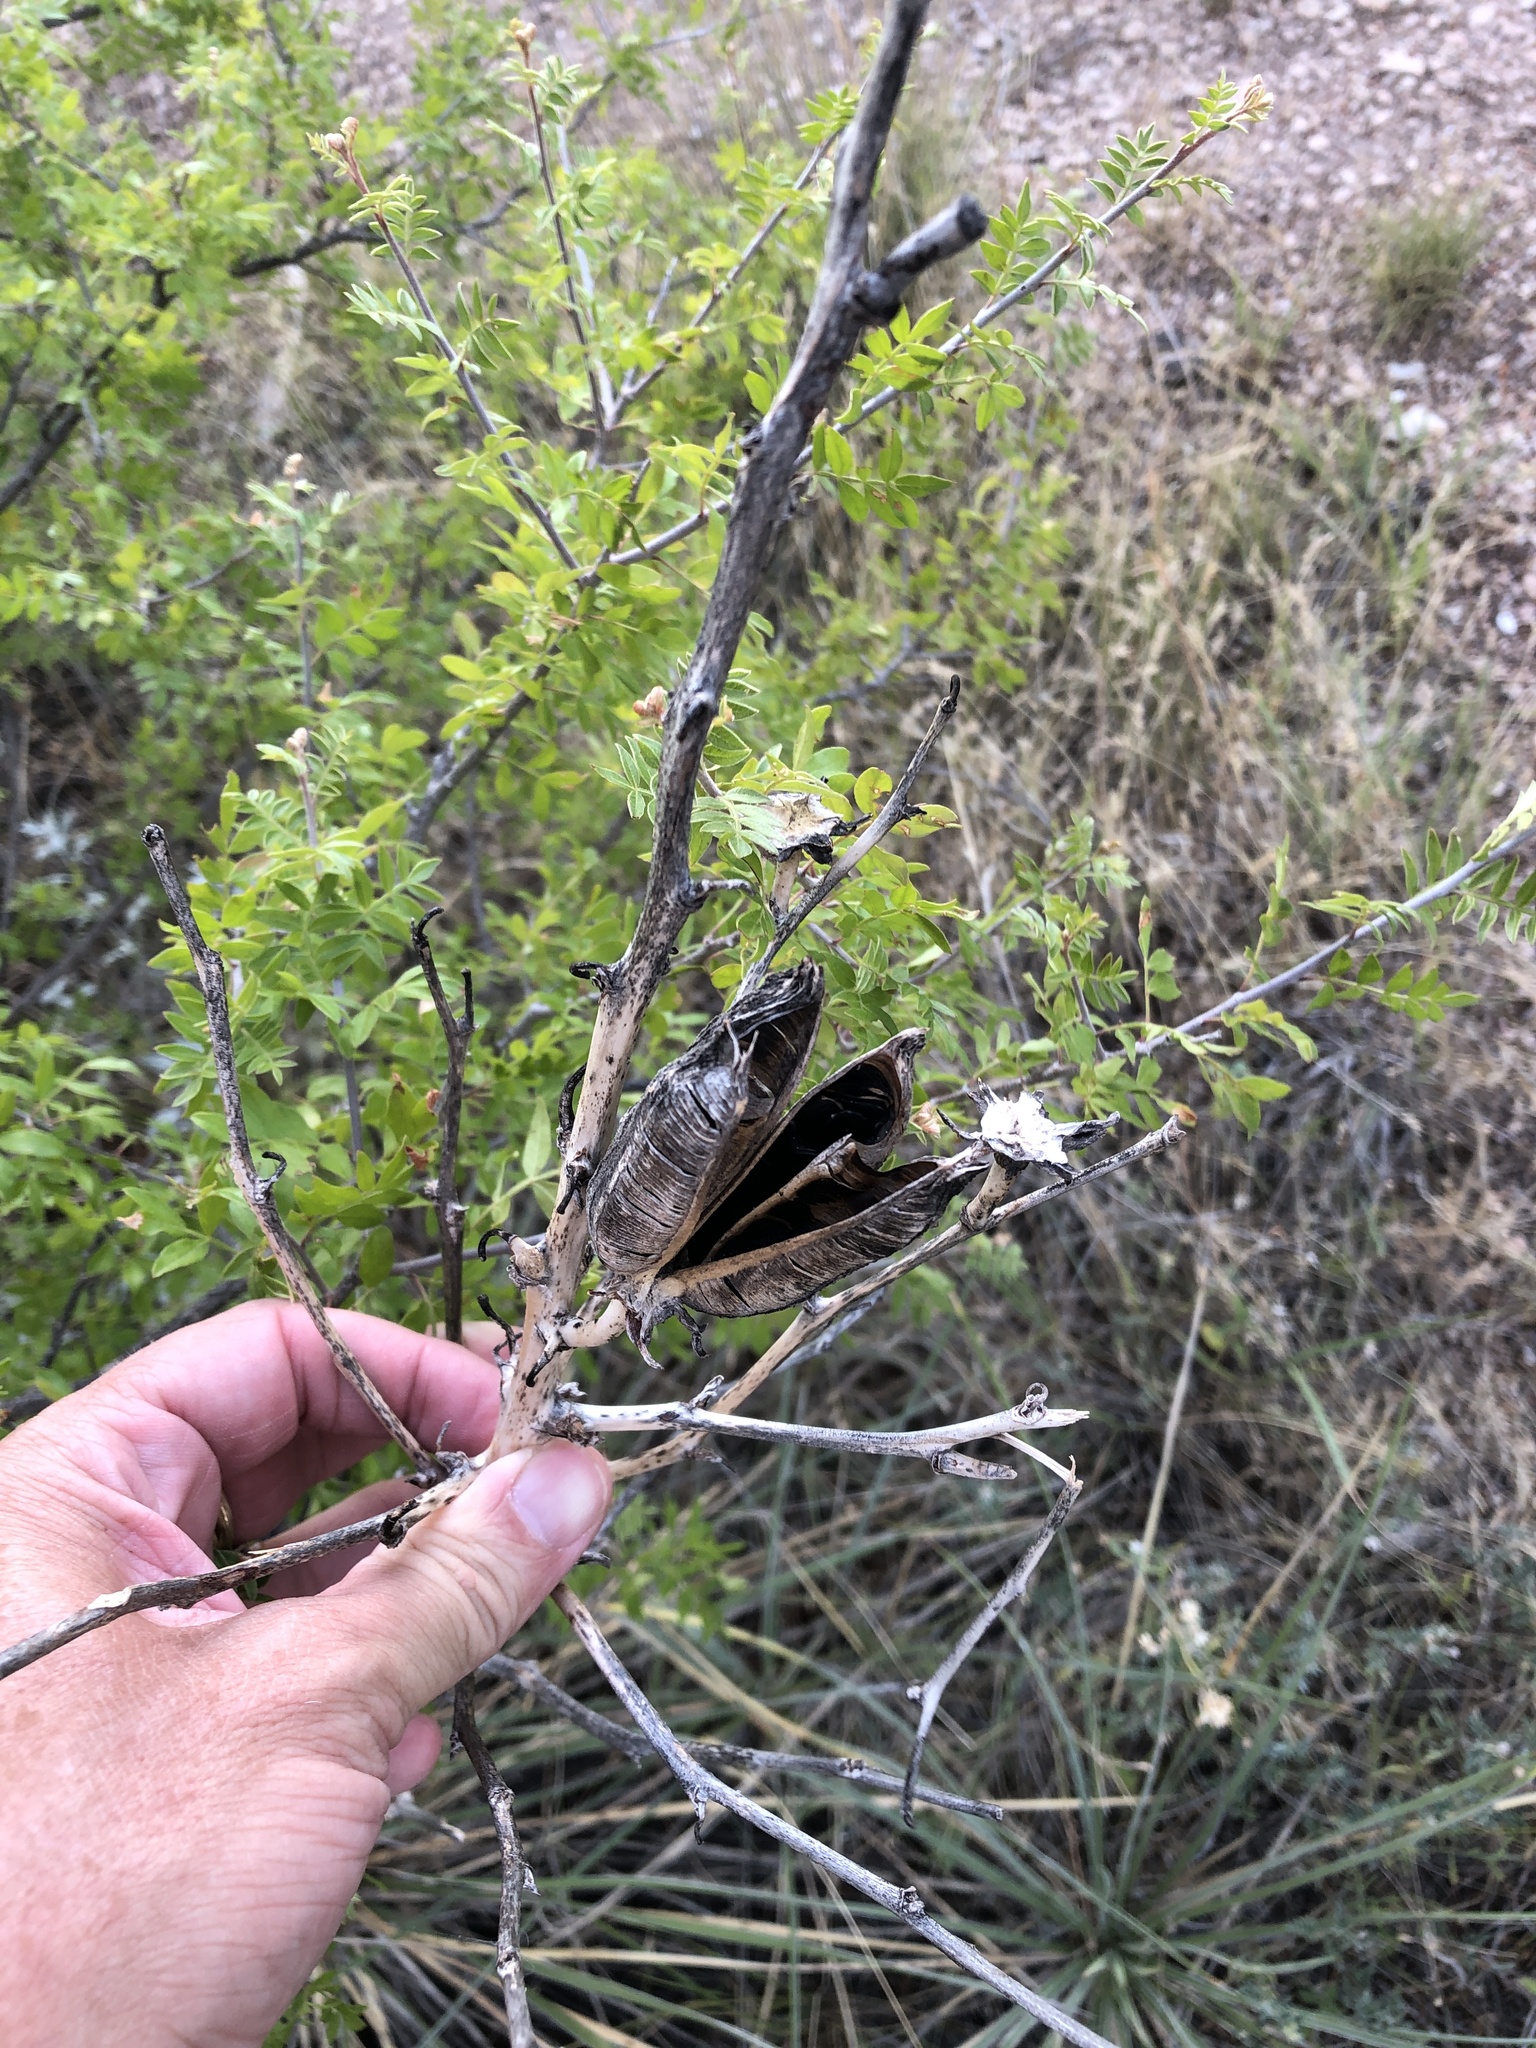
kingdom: Plantae
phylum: Tracheophyta
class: Liliopsida
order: Asparagales
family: Asparagaceae
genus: Yucca
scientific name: Yucca glauca
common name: Great plains yucca
